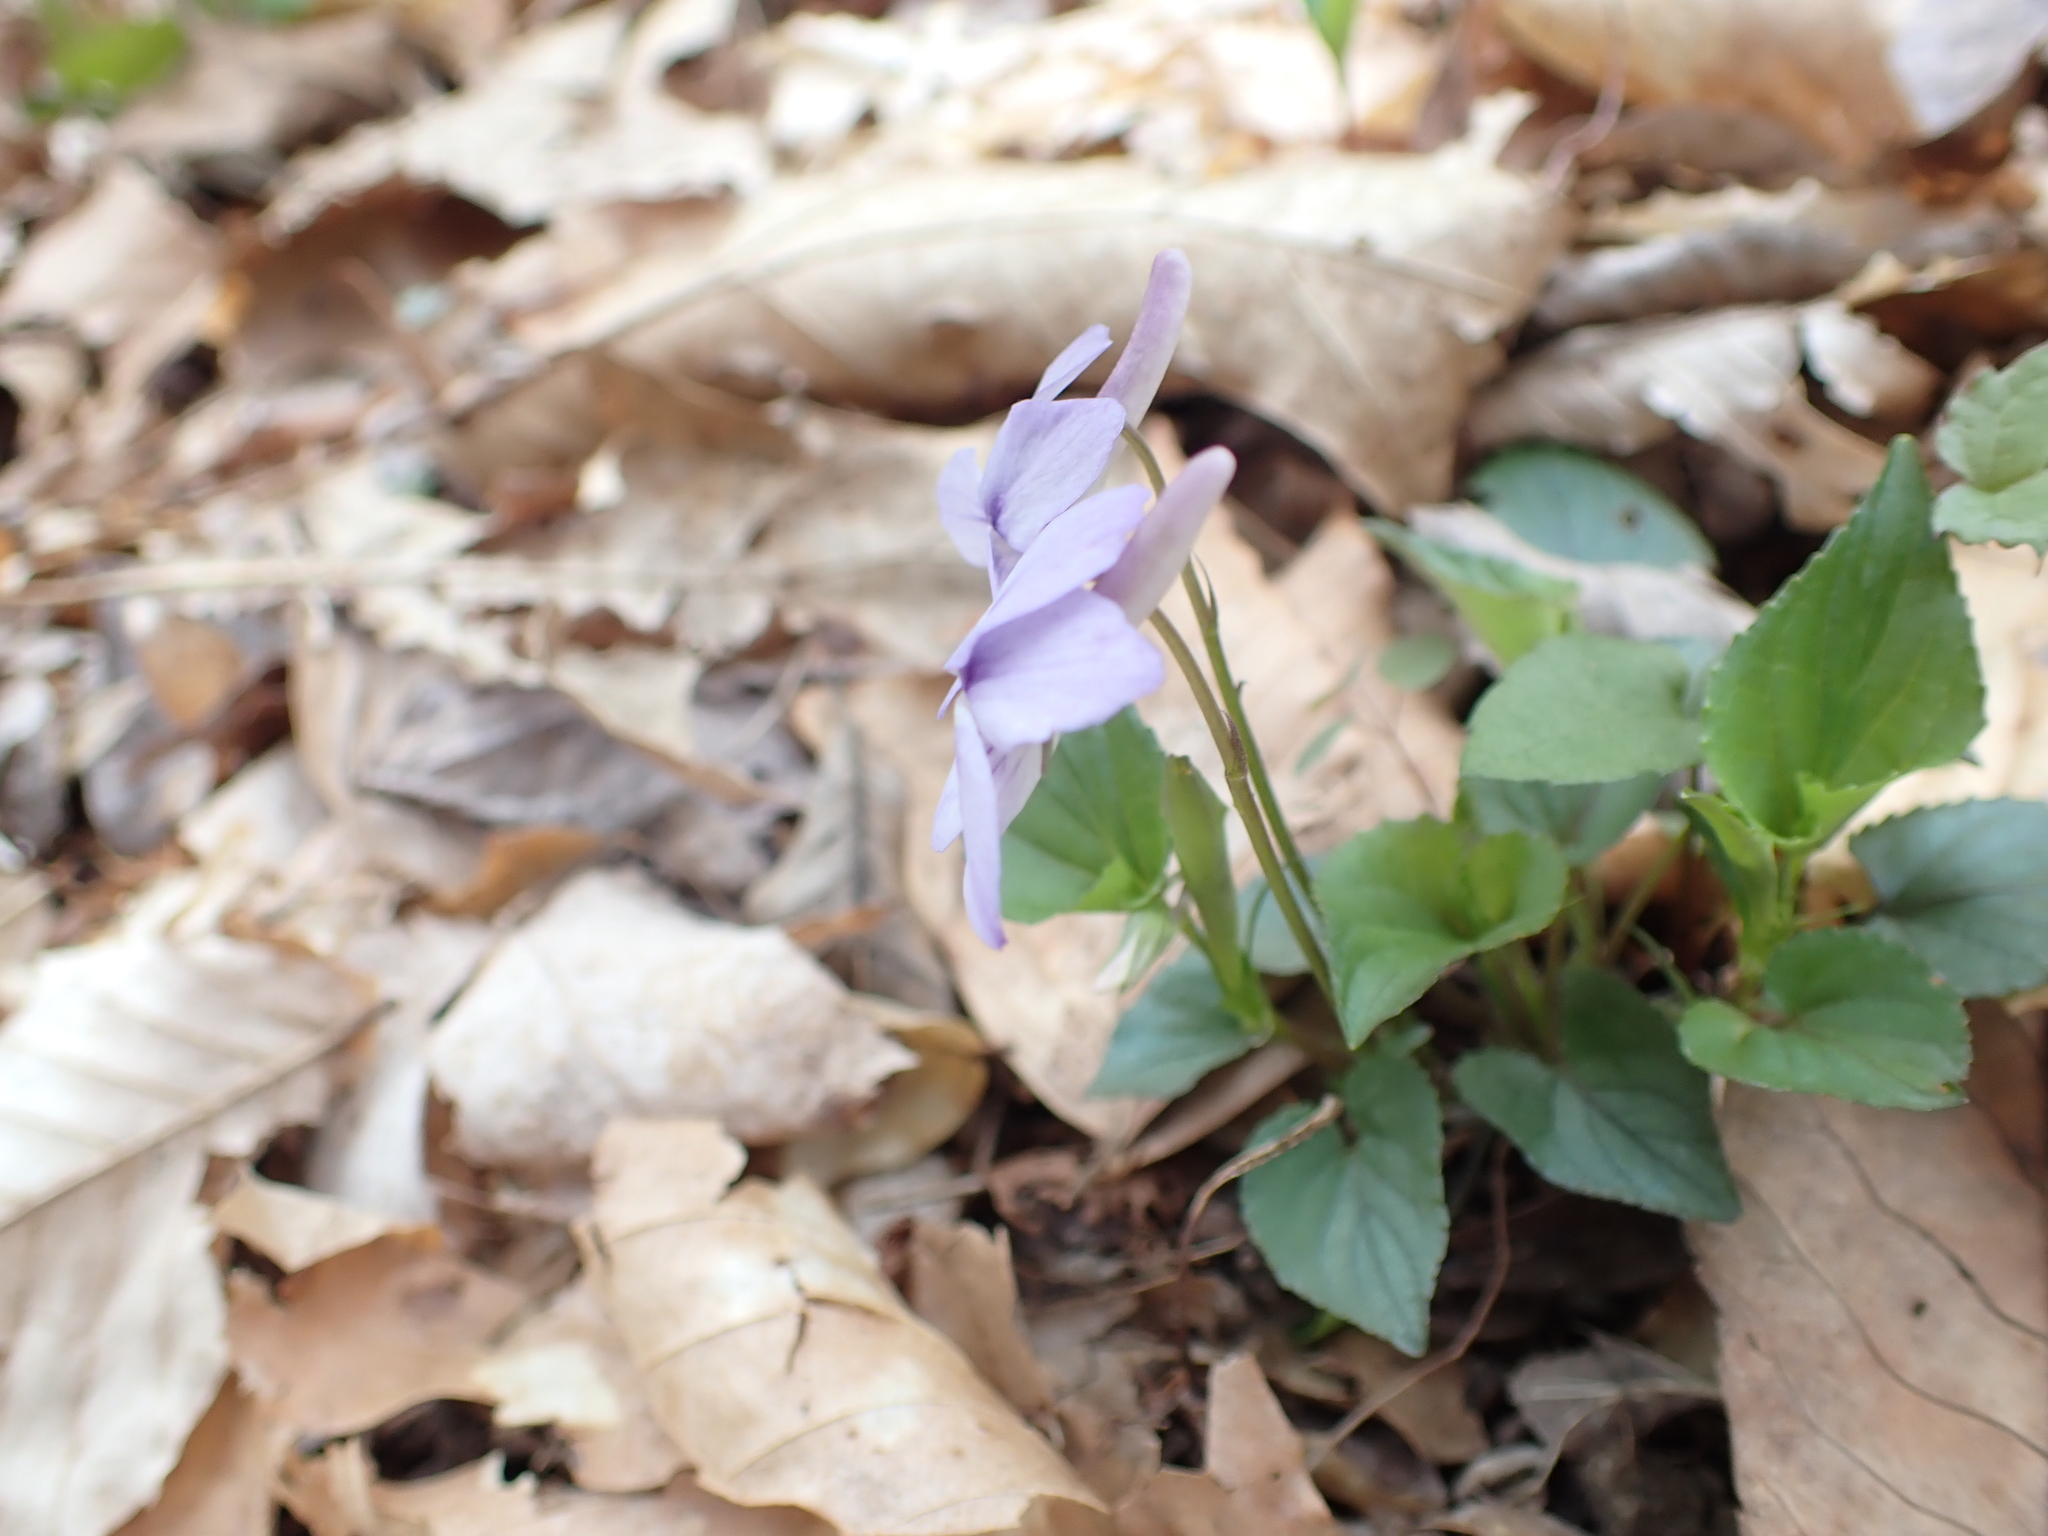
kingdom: Plantae
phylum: Tracheophyta
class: Magnoliopsida
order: Malpighiales
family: Violaceae
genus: Viola
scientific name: Viola rostrata
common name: Long-spur violet
